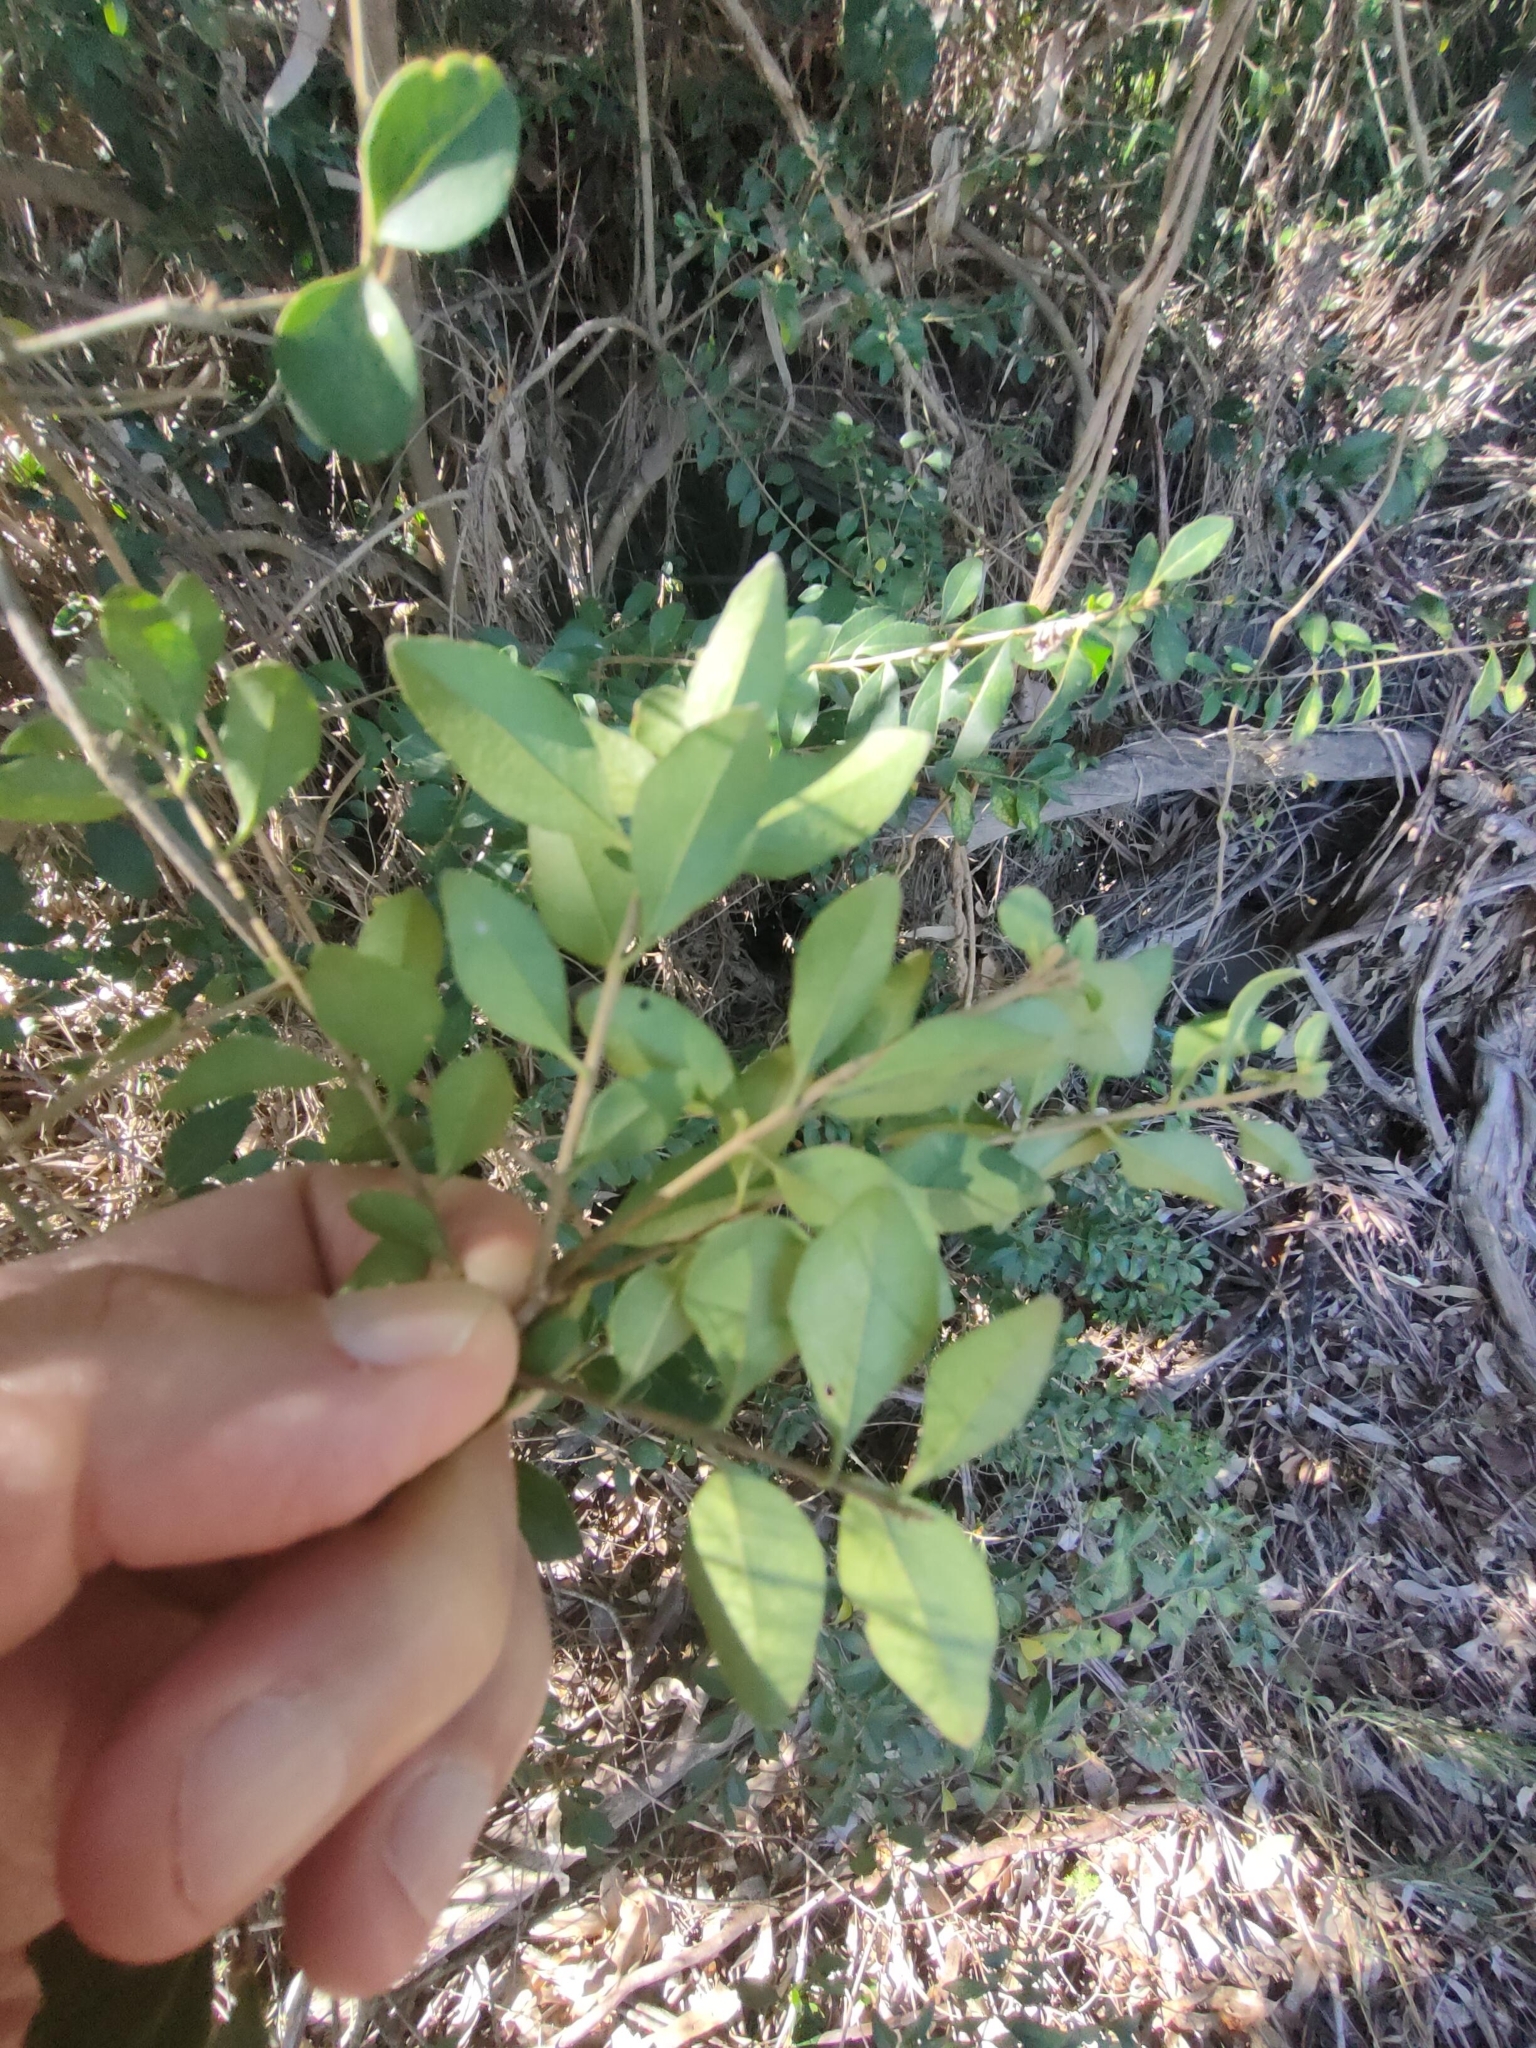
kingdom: Plantae
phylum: Tracheophyta
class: Magnoliopsida
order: Lamiales
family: Oleaceae
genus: Ligustrum
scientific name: Ligustrum sinense
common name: Chinese privet
